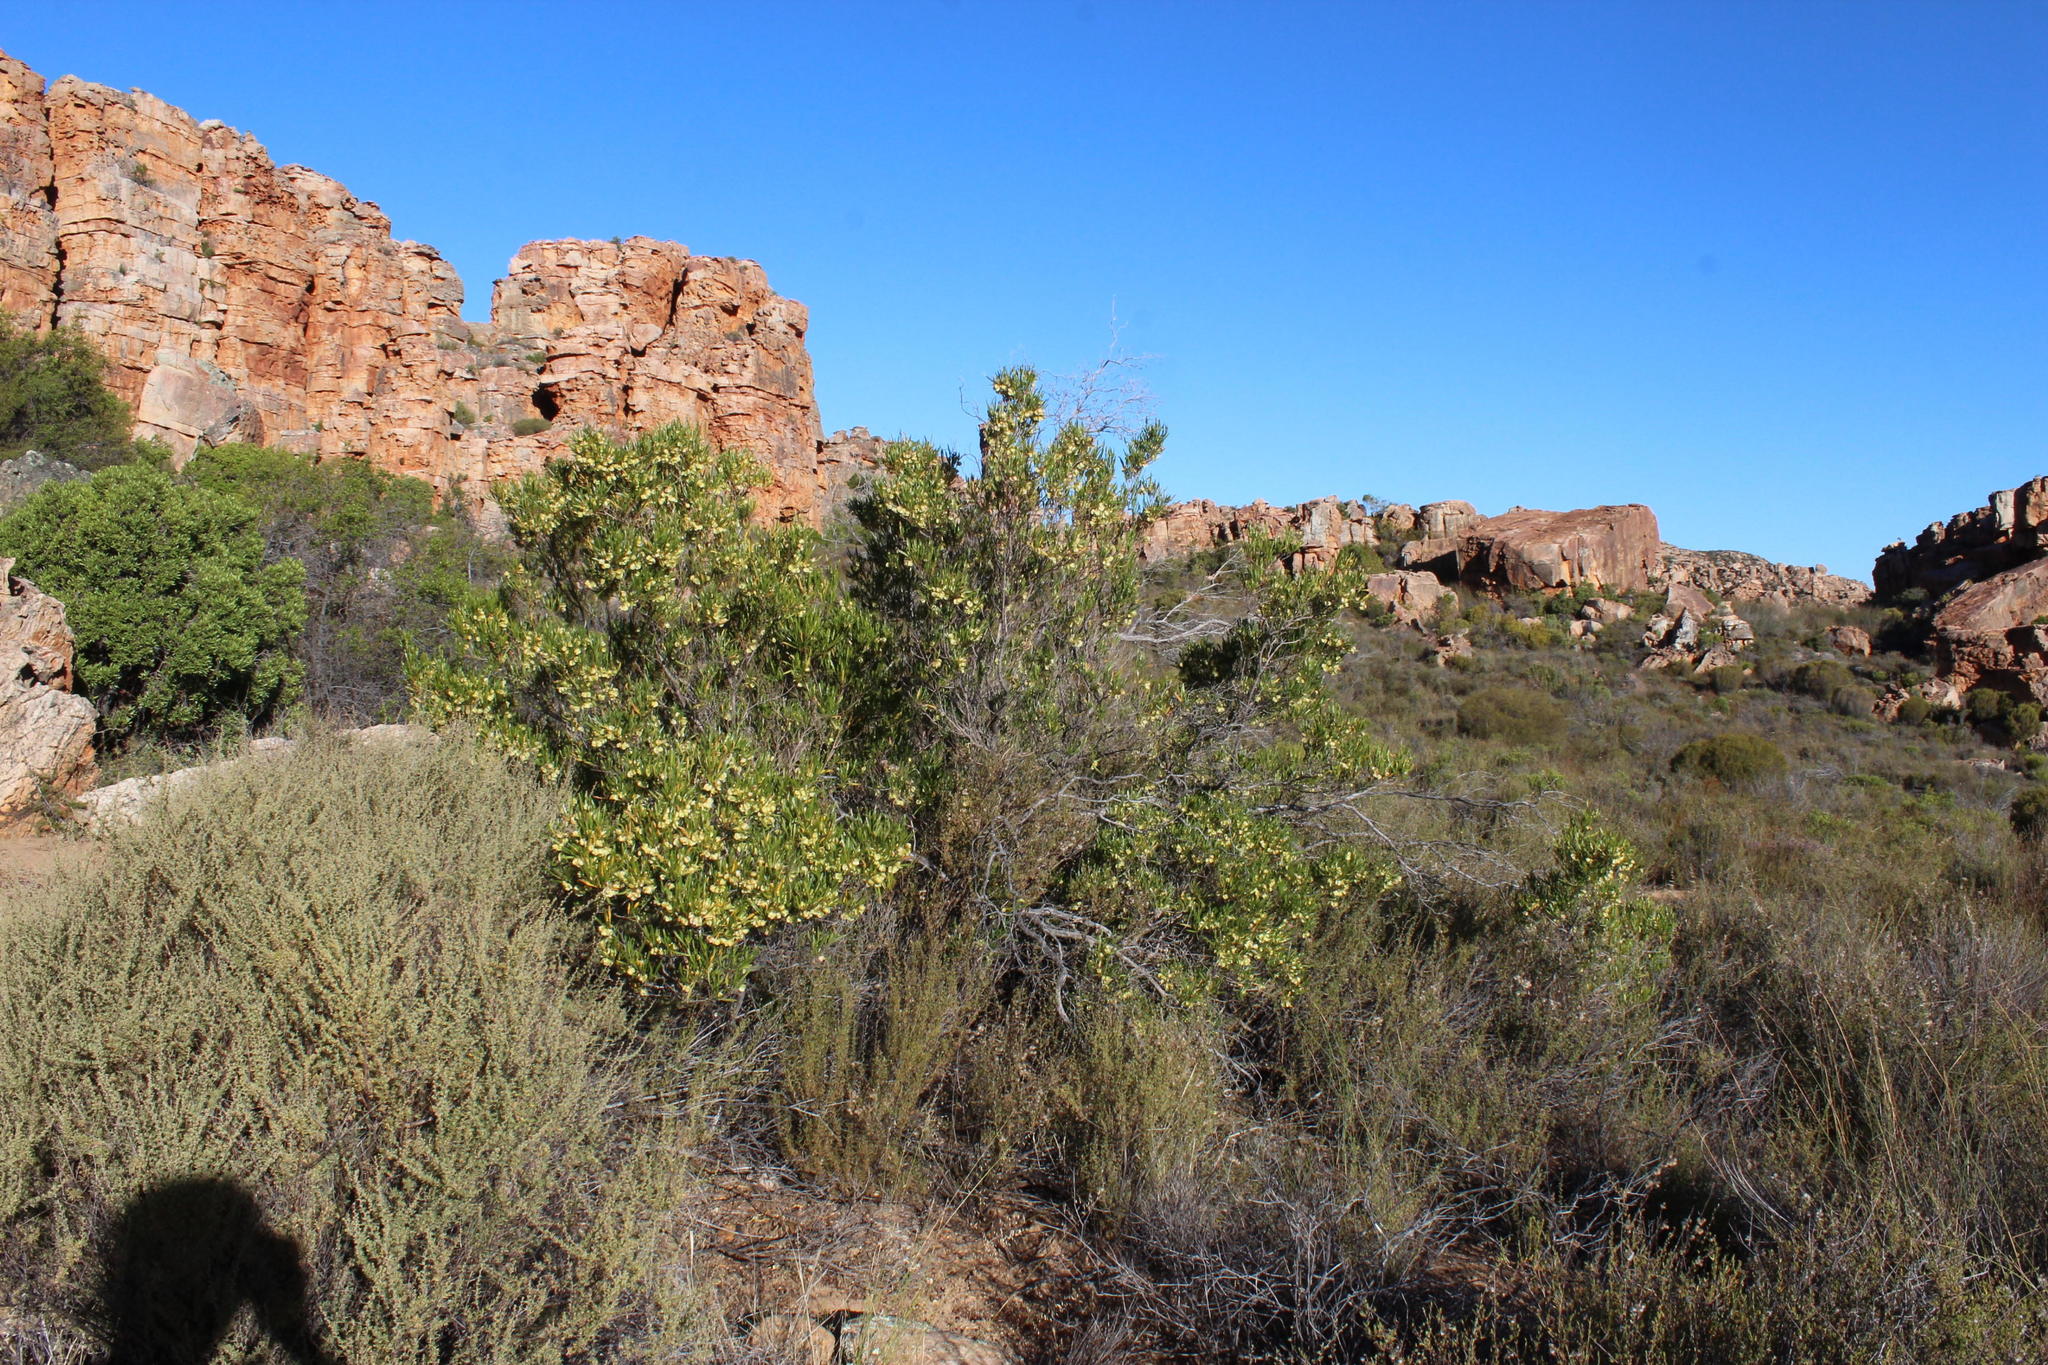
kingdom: Plantae
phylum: Tracheophyta
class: Magnoliopsida
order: Sapindales
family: Sapindaceae
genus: Dodonaea
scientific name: Dodonaea viscosa
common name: Hopbush
